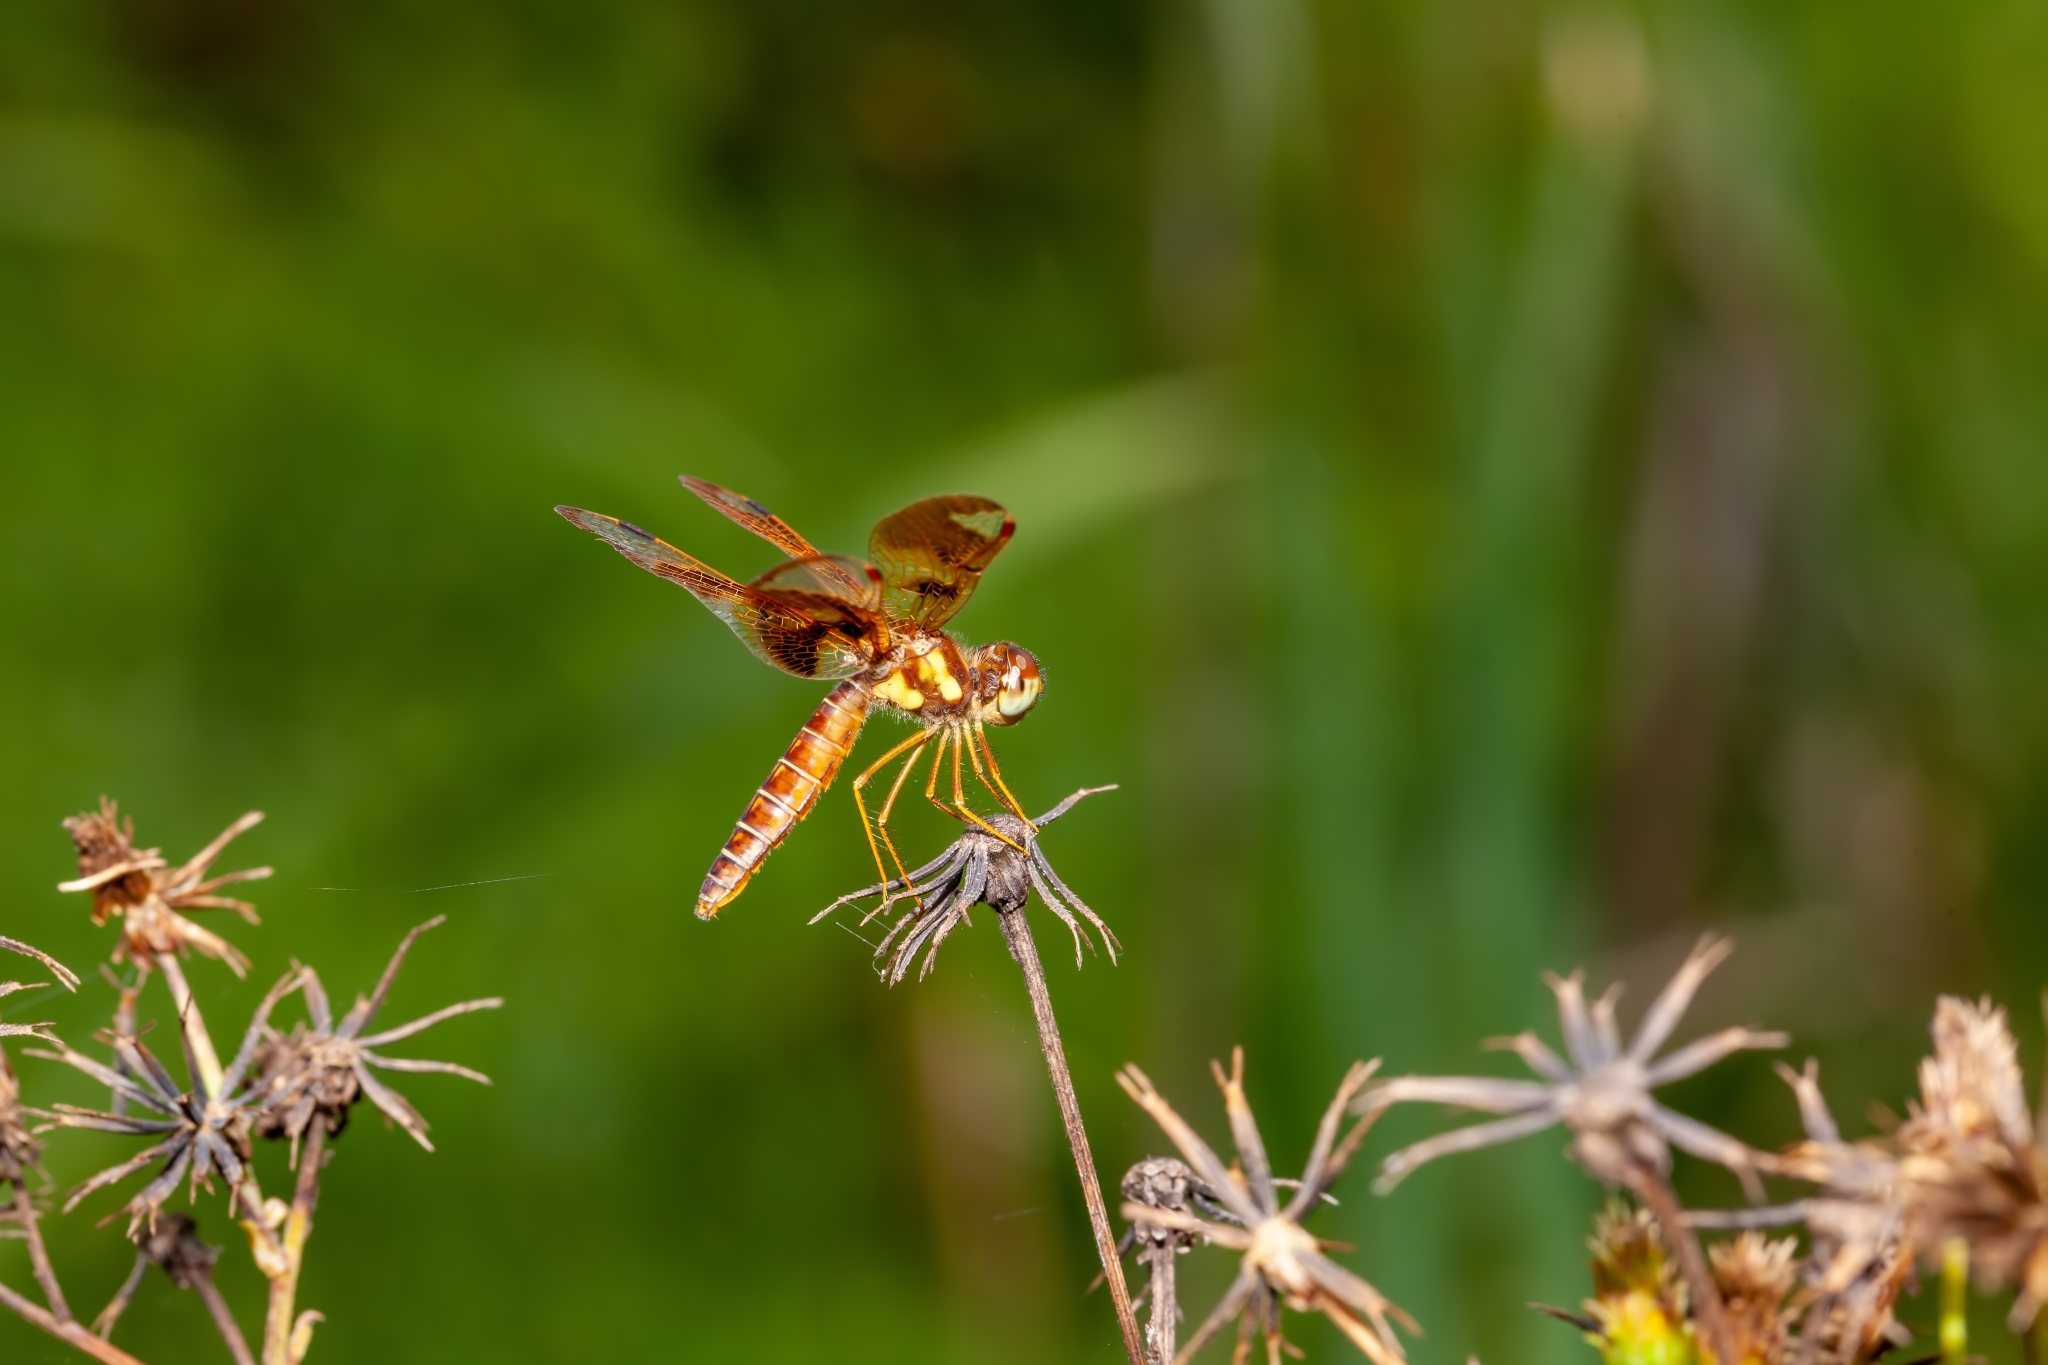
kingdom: Animalia
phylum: Arthropoda
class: Insecta
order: Odonata
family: Libellulidae
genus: Perithemis
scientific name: Perithemis tenera
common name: Eastern amberwing
